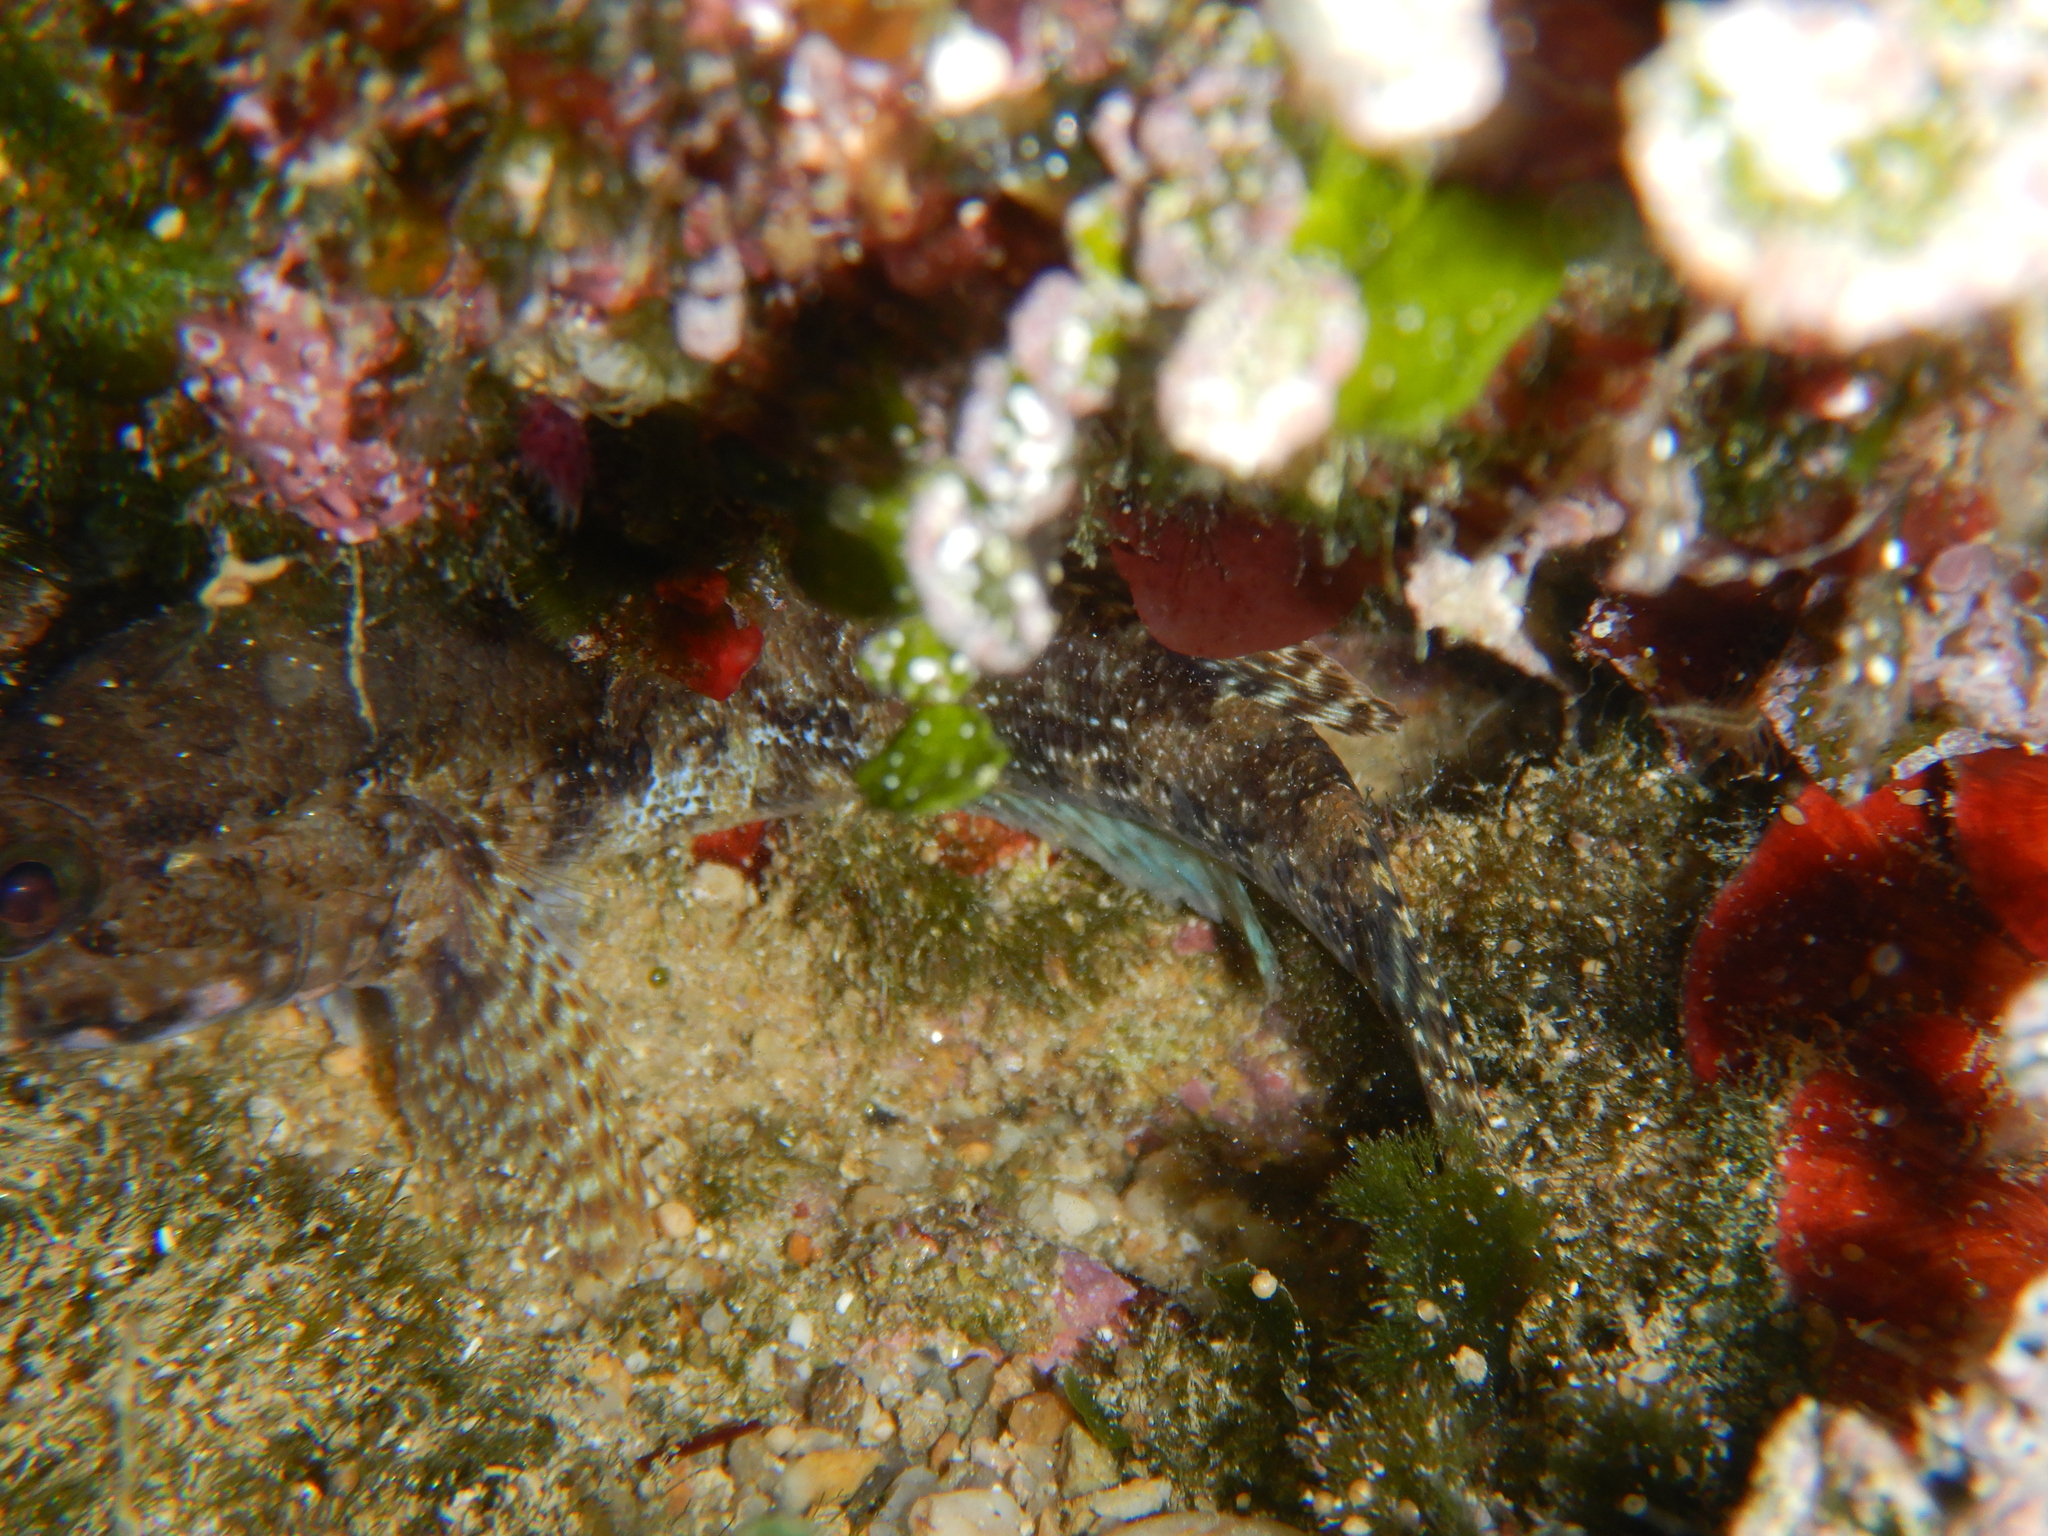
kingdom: Animalia
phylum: Chordata
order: Perciformes
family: Gobiidae
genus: Gobius
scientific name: Gobius paganellus
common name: Rock goby
